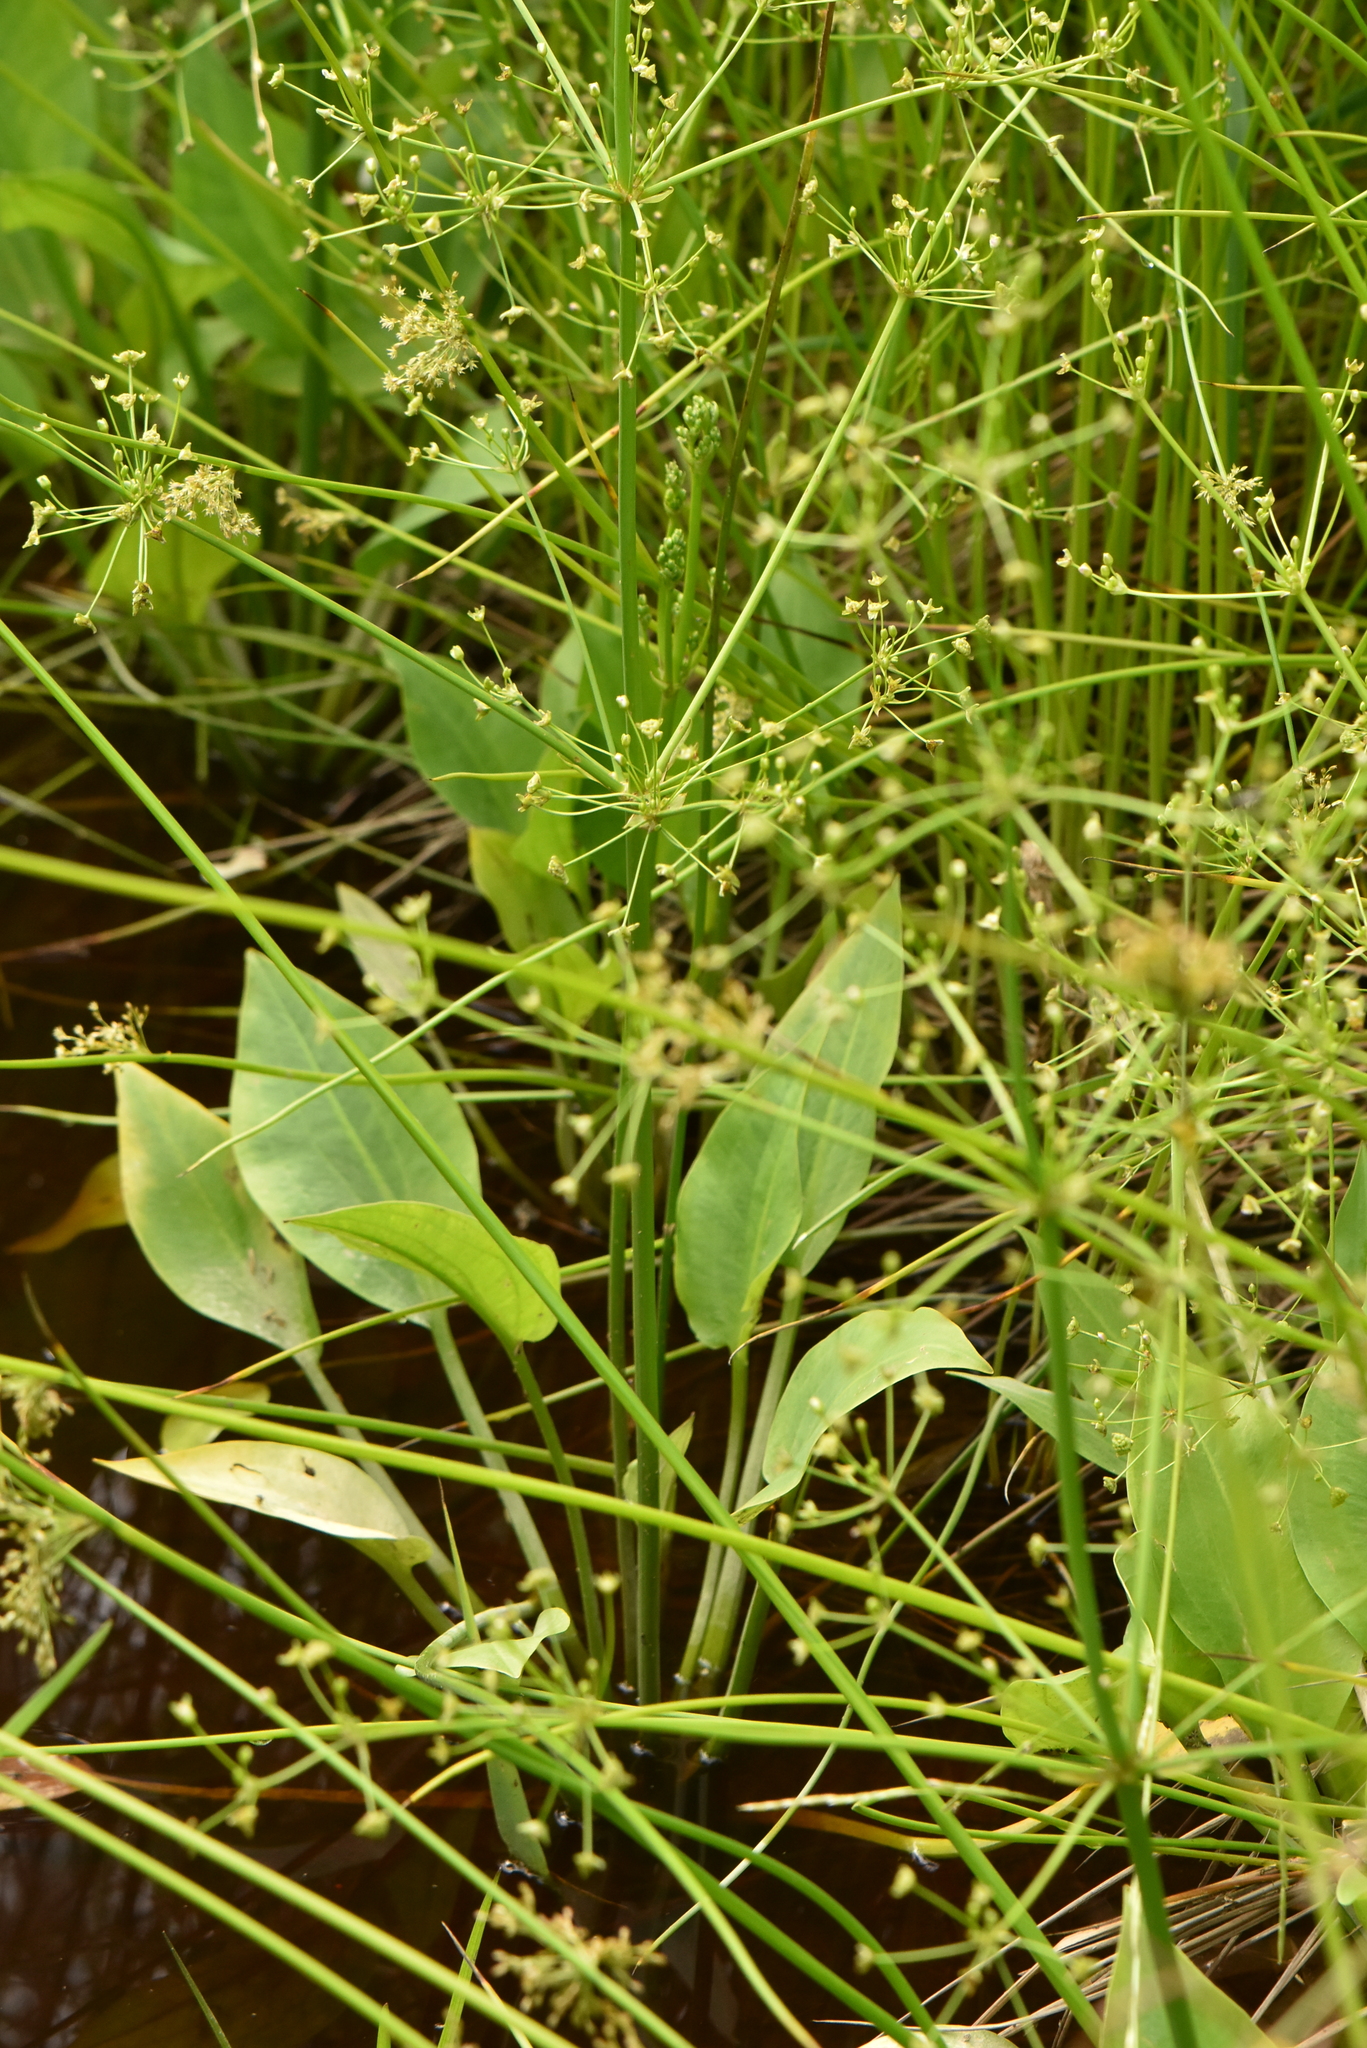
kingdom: Plantae
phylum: Tracheophyta
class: Liliopsida
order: Alismatales
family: Alismataceae
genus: Alisma
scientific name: Alisma plantago-aquatica
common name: Water-plantain
